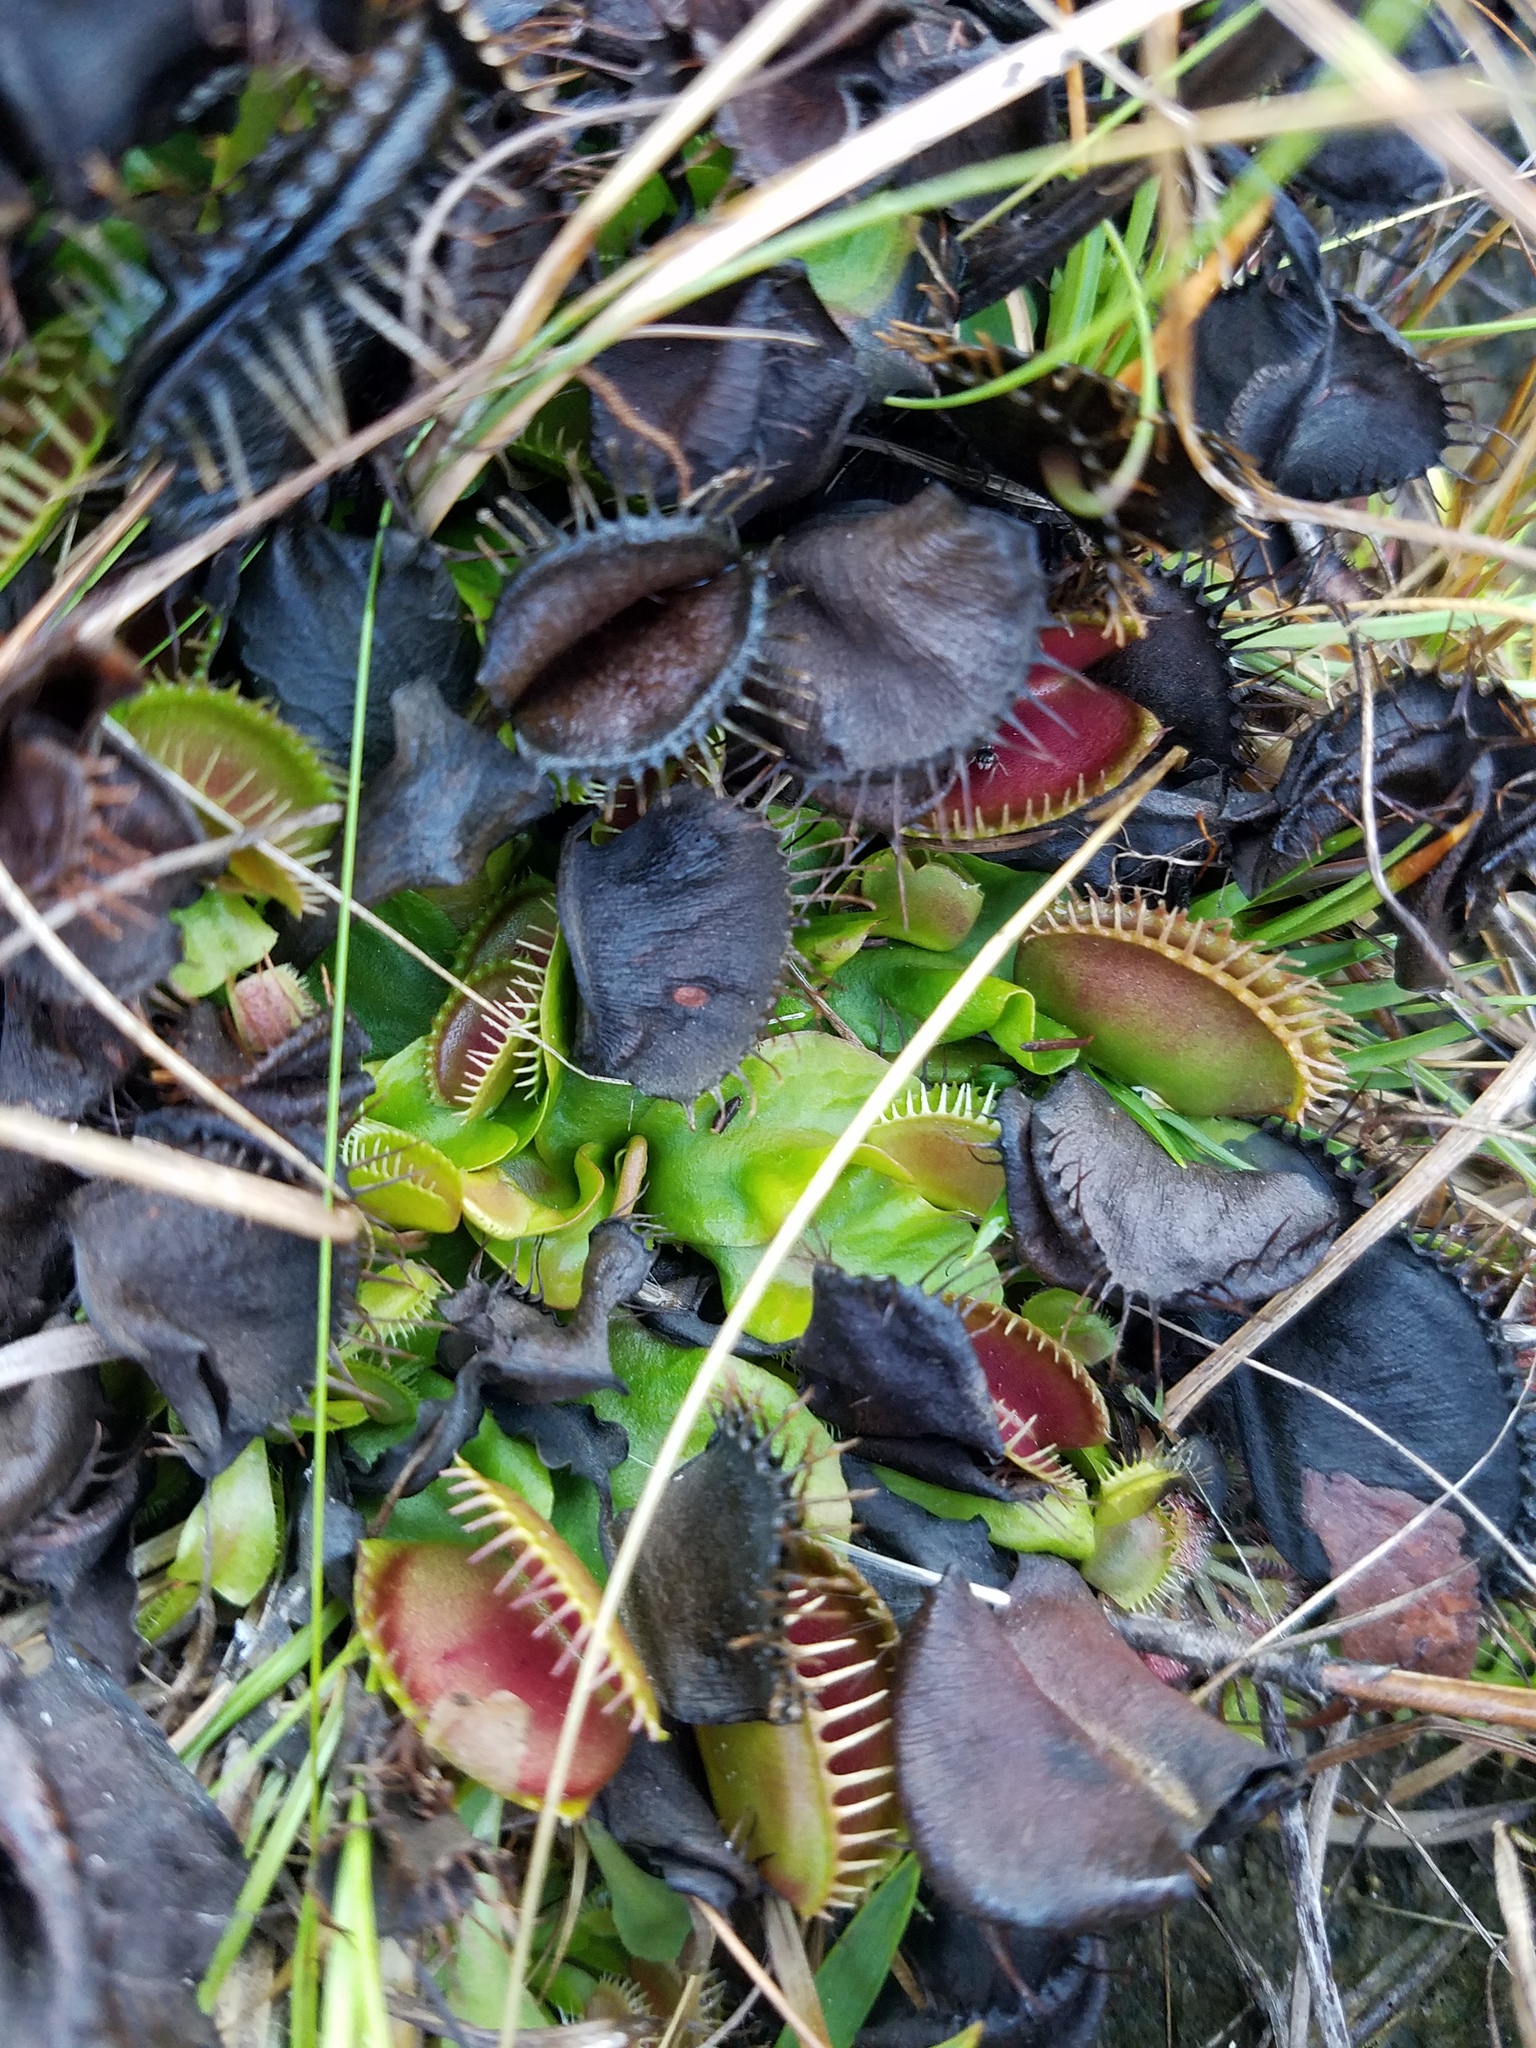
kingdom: Plantae
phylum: Tracheophyta
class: Magnoliopsida
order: Caryophyllales
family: Droseraceae
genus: Dionaea
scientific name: Dionaea muscipula
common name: Venus flytrap
